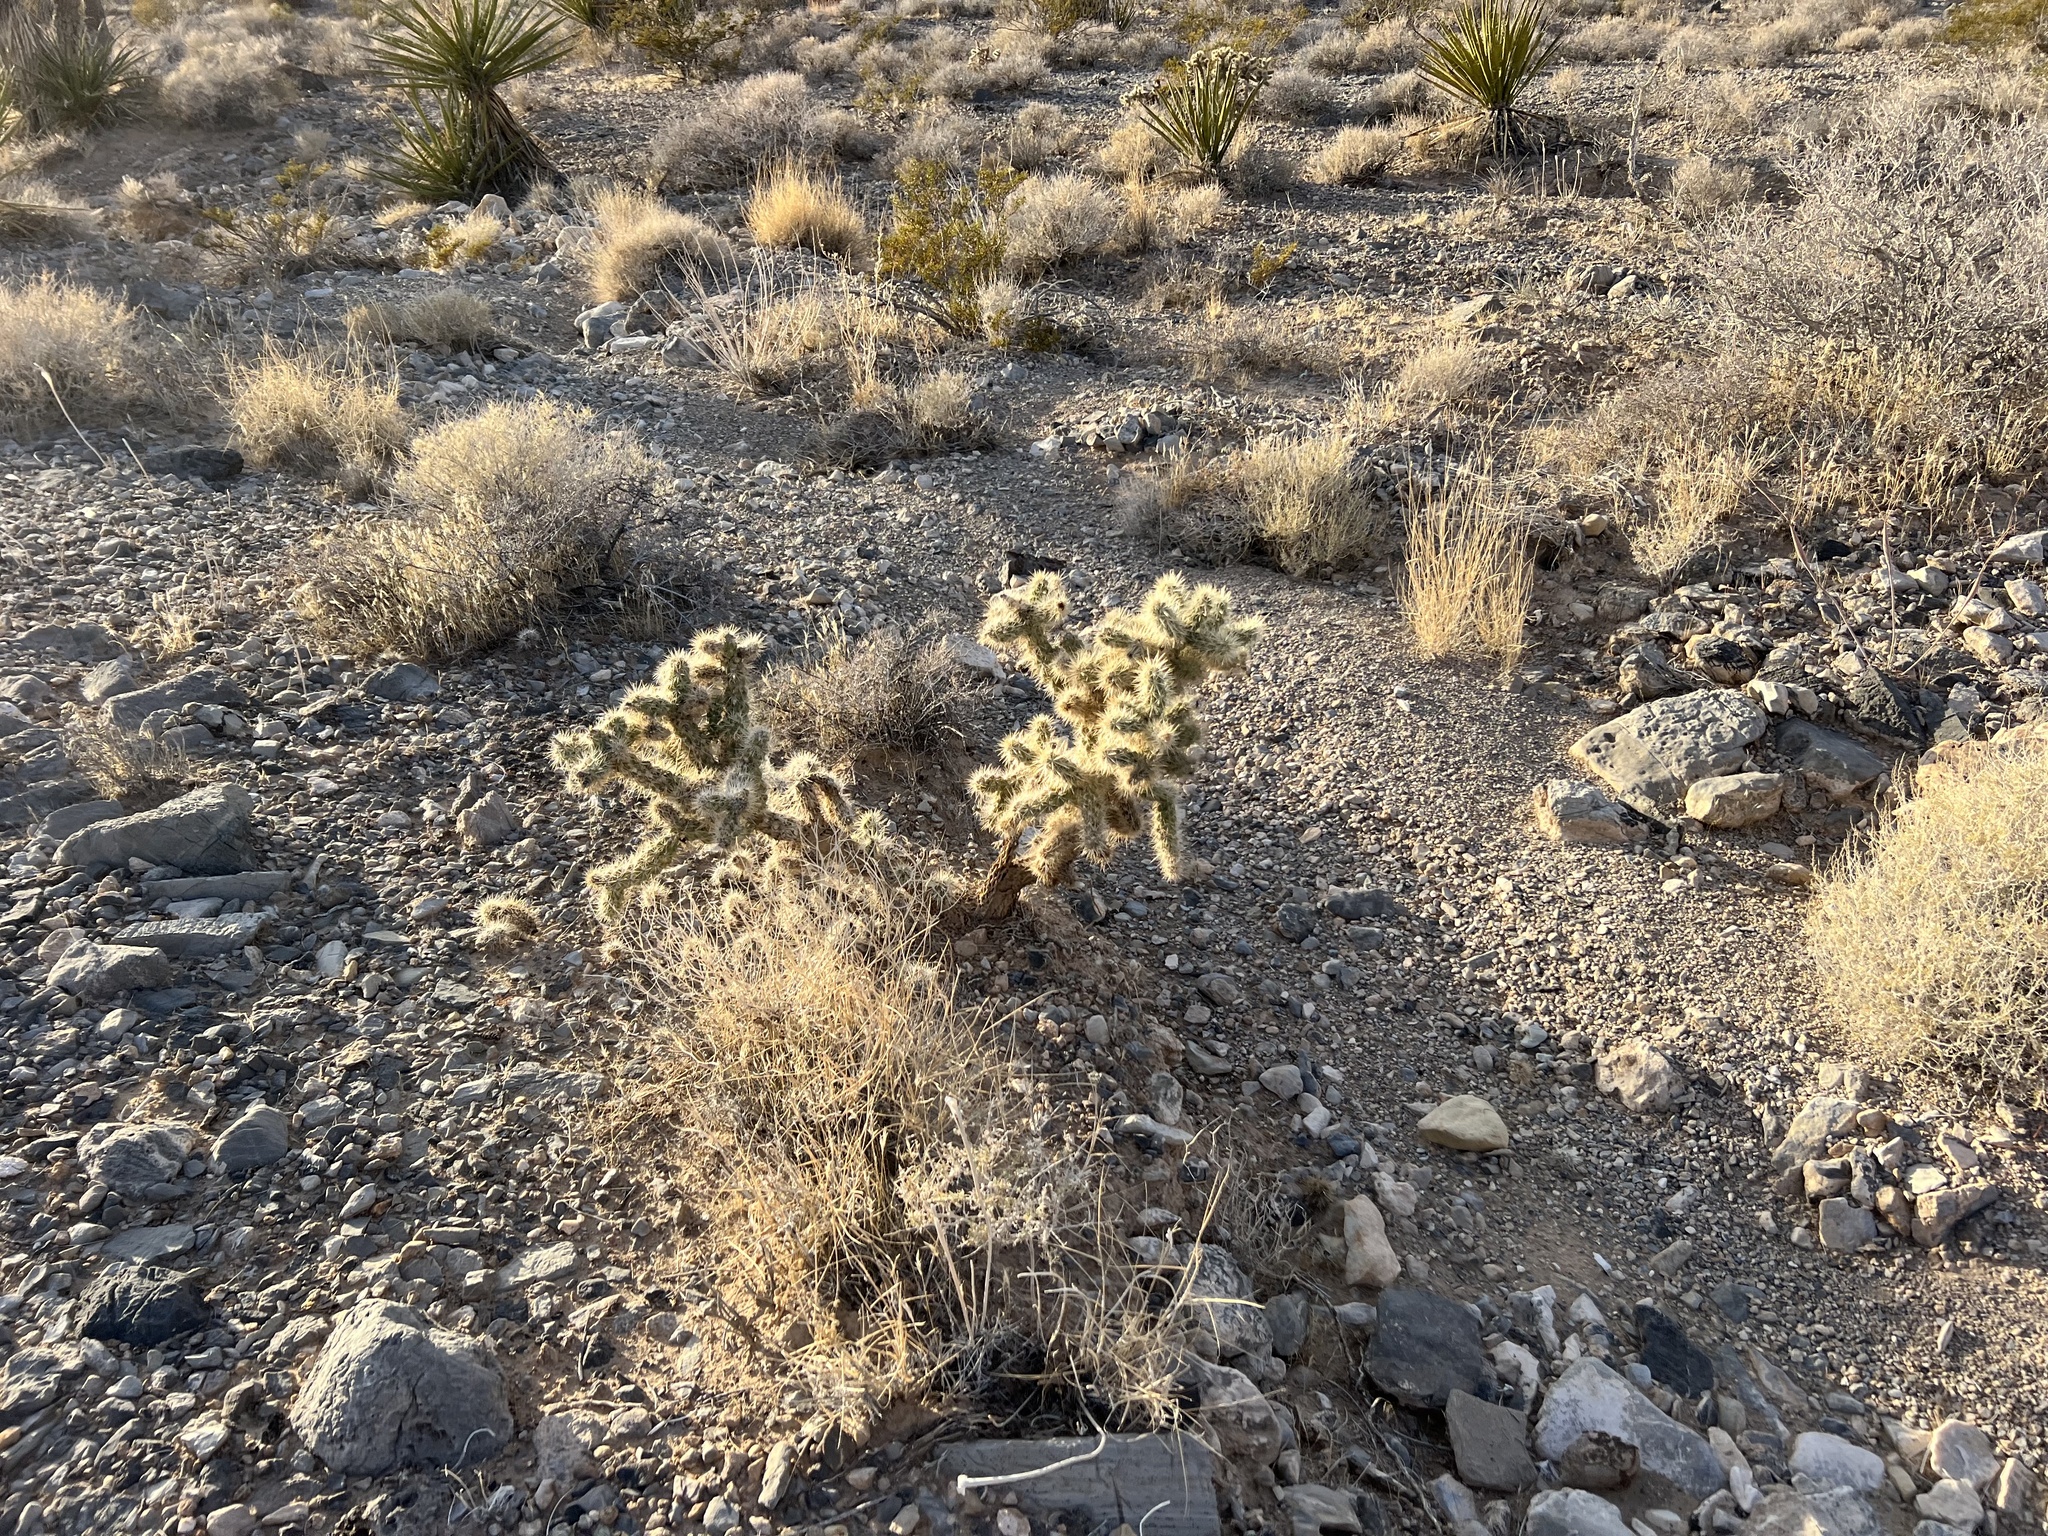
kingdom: Plantae
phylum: Tracheophyta
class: Magnoliopsida
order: Caryophyllales
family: Cactaceae
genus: Cylindropuntia
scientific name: Cylindropuntia echinocarpa
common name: Ground cholla
